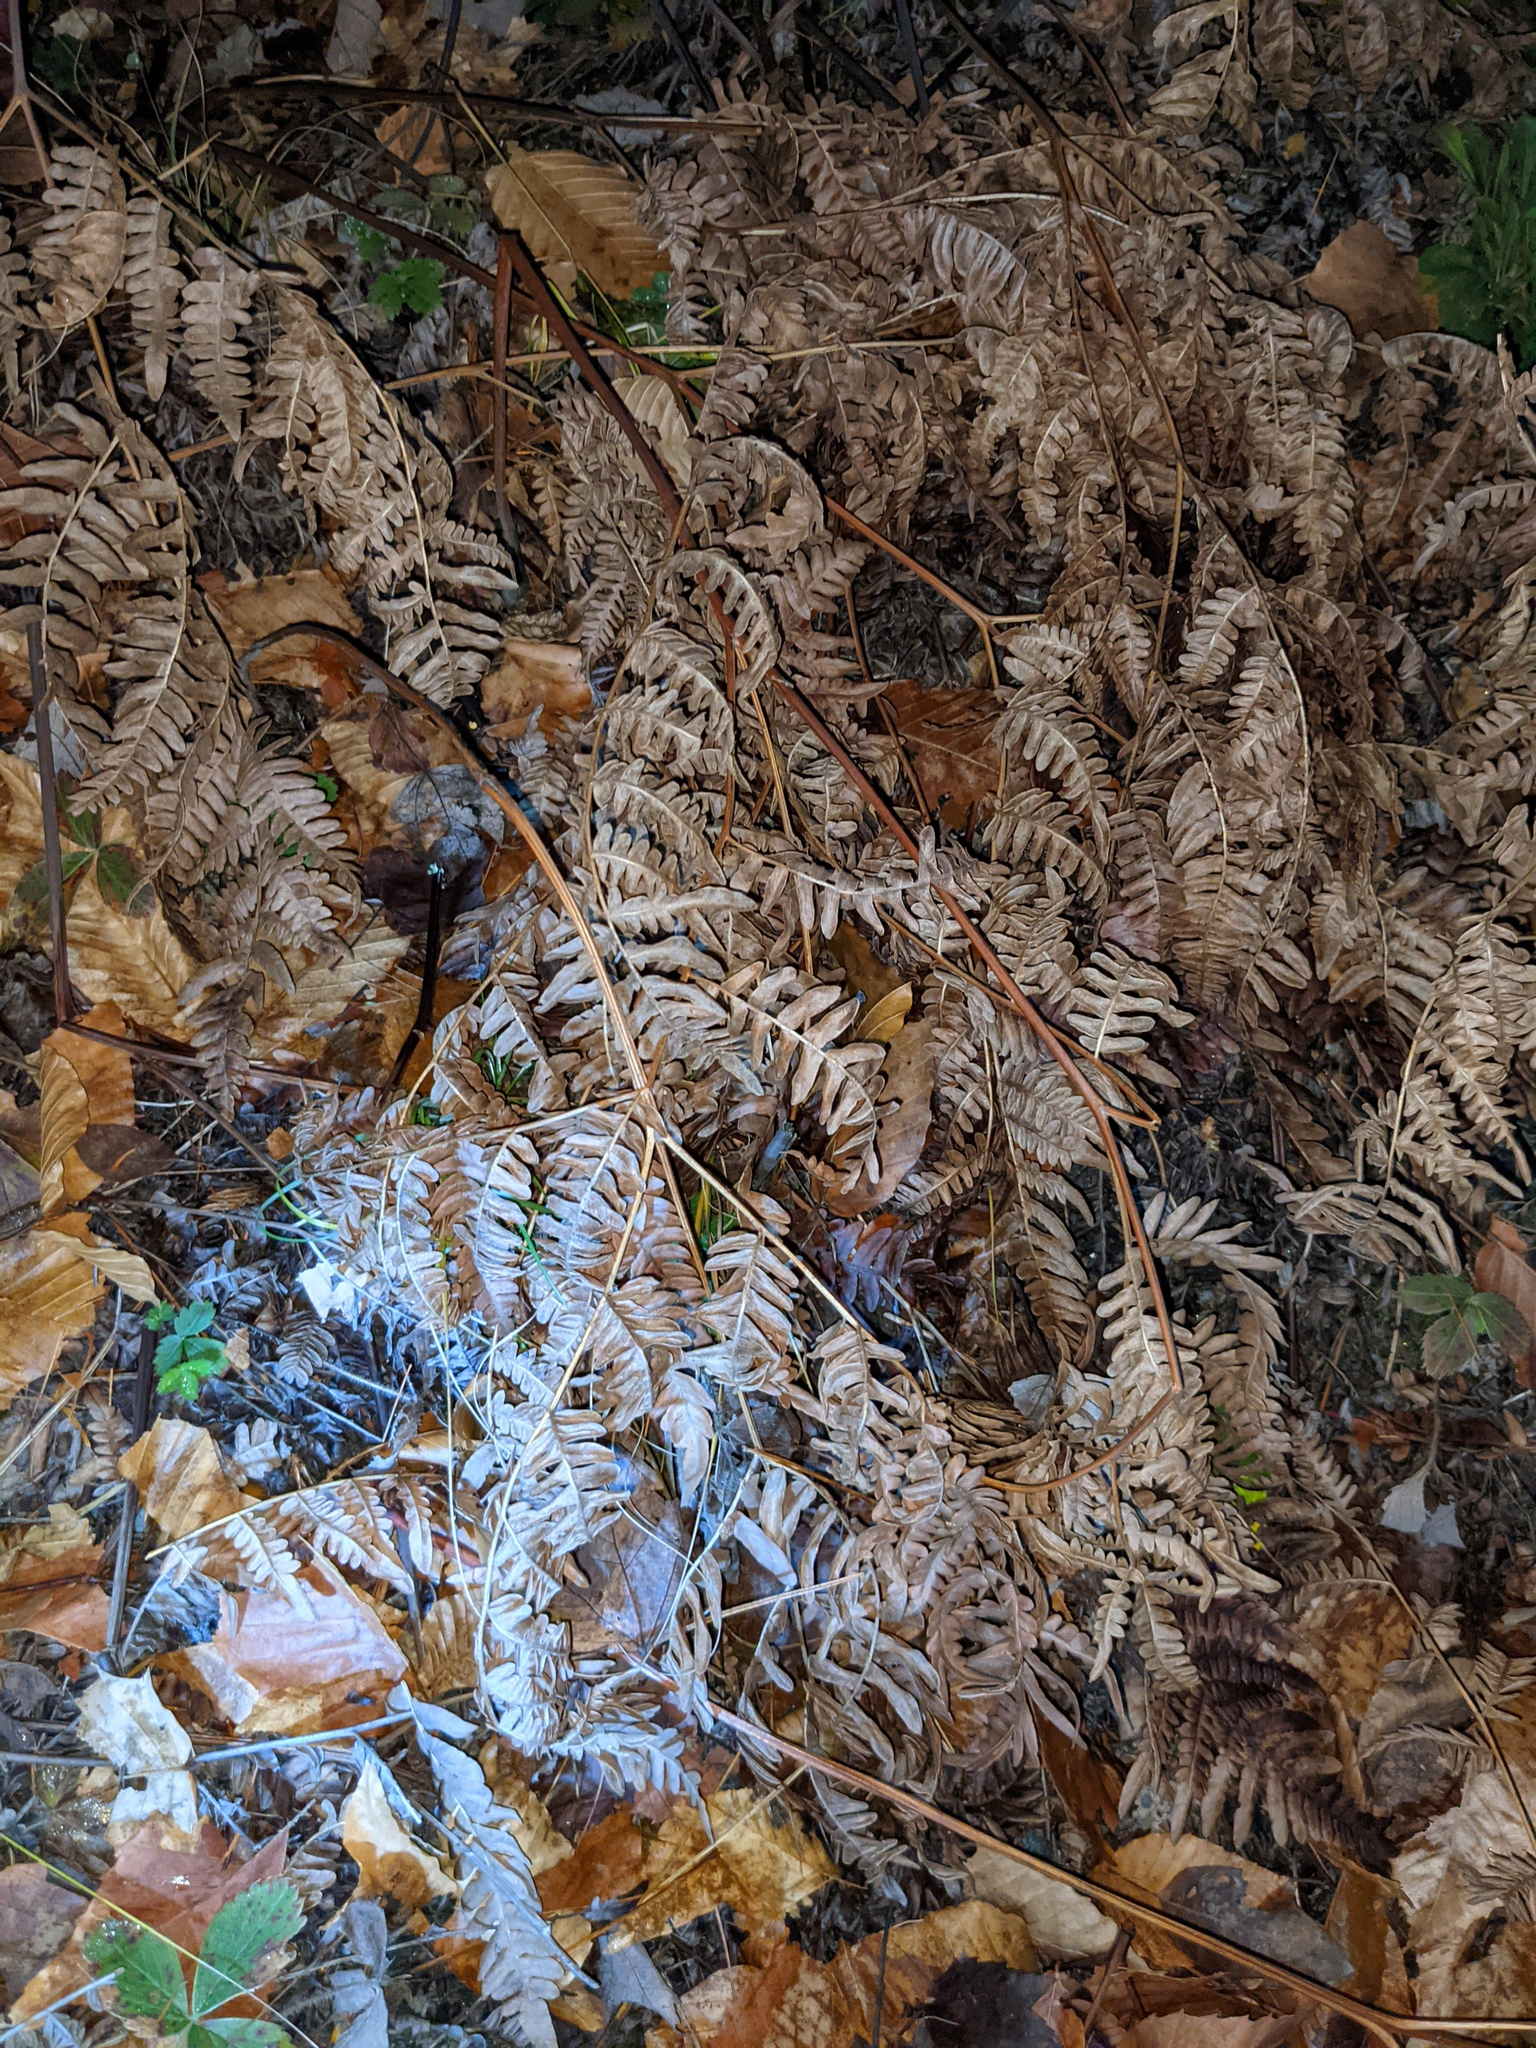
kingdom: Plantae
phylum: Tracheophyta
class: Polypodiopsida
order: Polypodiales
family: Dennstaedtiaceae
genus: Pteridium
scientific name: Pteridium aquilinum
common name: Bracken
